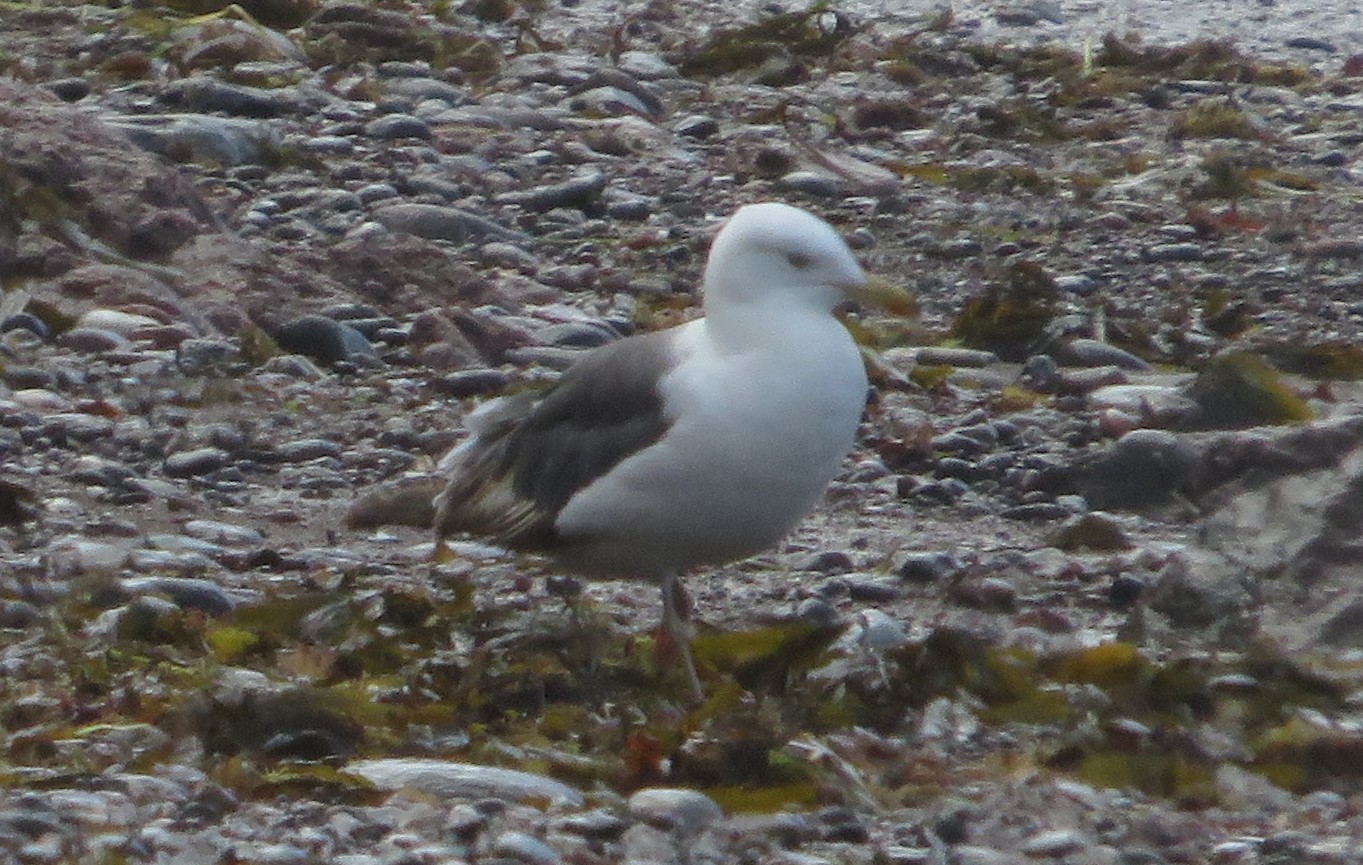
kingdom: Animalia
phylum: Chordata
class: Aves
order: Charadriiformes
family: Laridae
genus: Larus
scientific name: Larus marinus
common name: Great black-backed gull
